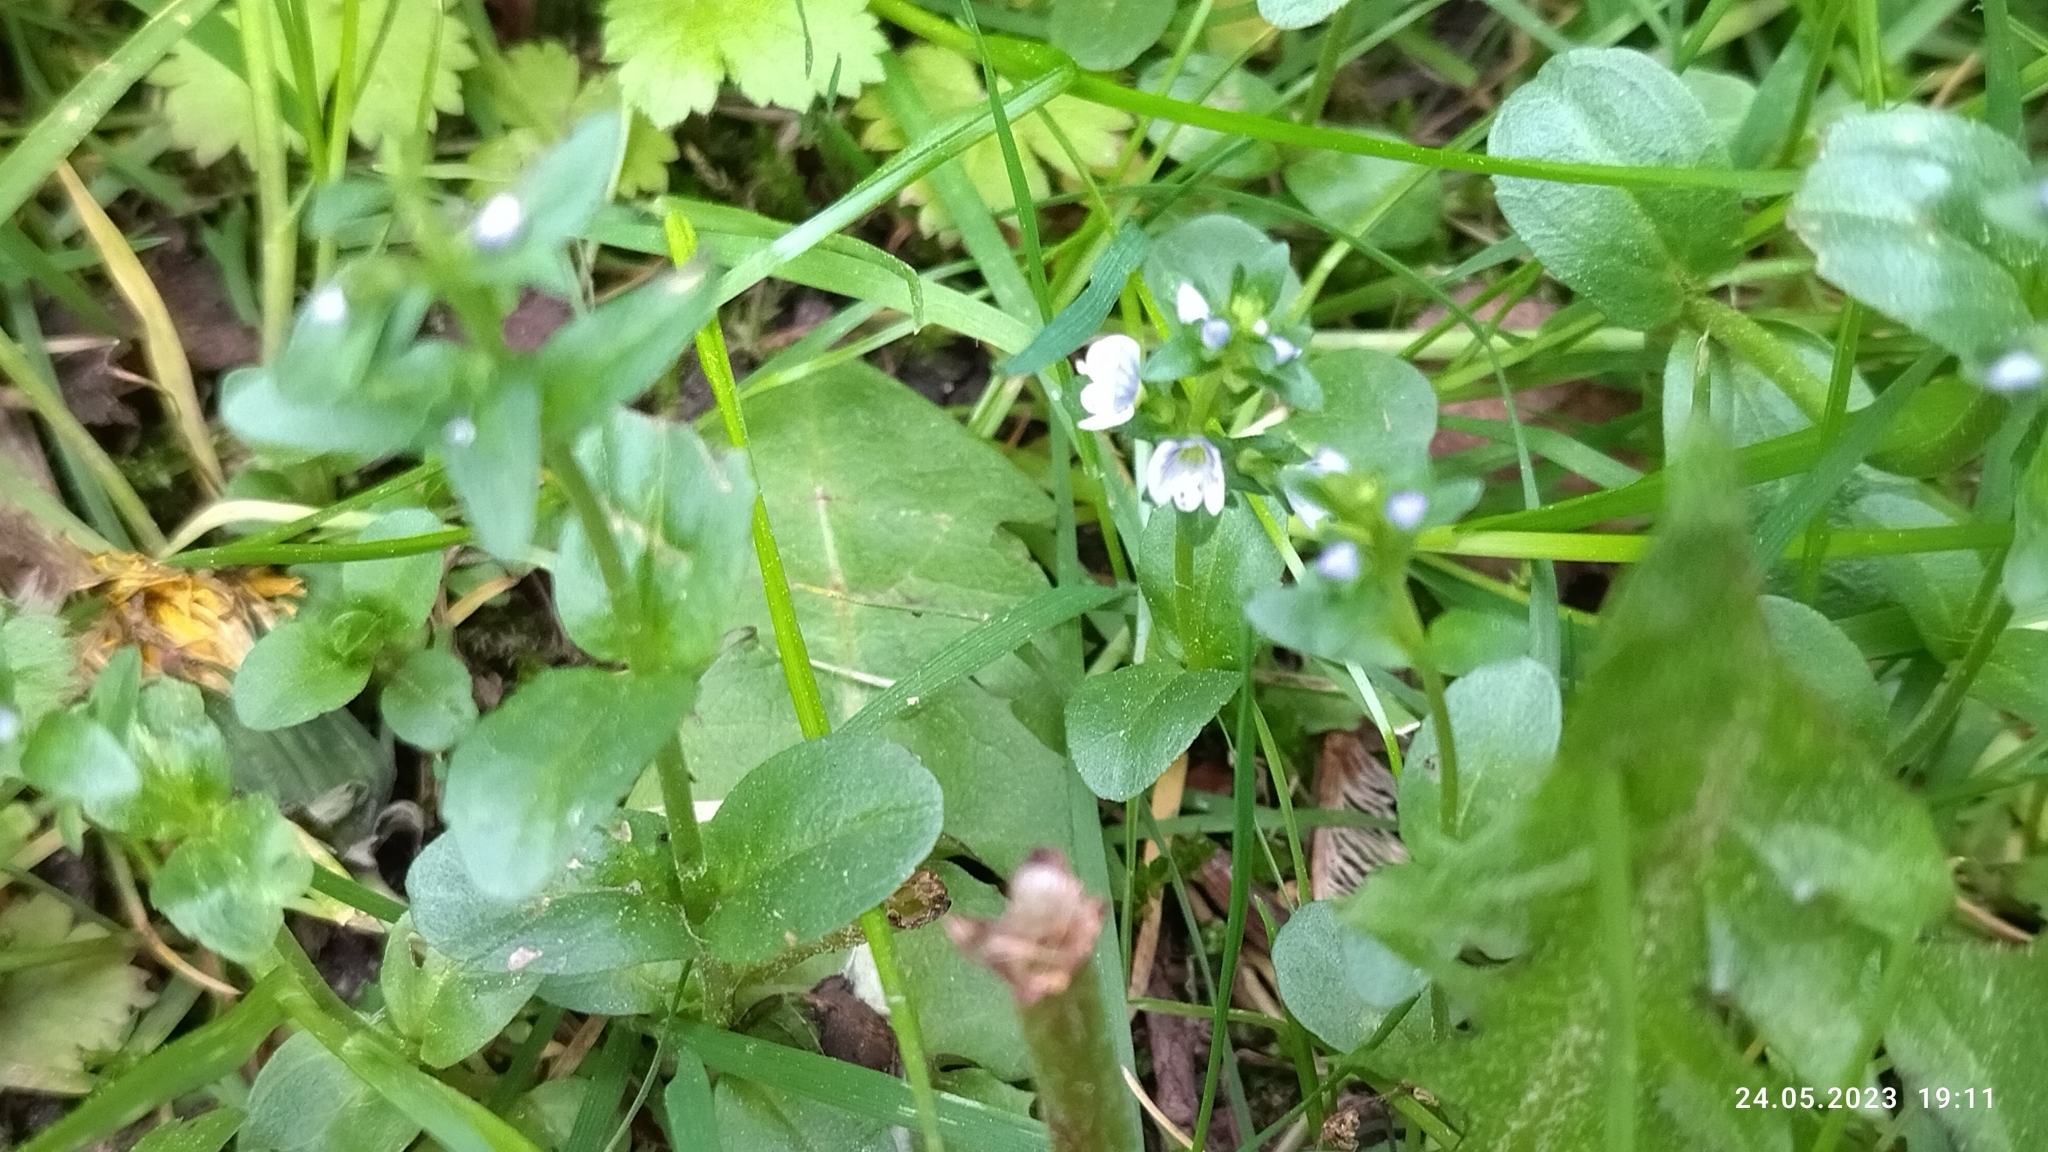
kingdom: Plantae
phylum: Tracheophyta
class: Magnoliopsida
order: Lamiales
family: Plantaginaceae
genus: Veronica
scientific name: Veronica serpyllifolia
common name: Thyme-leaved speedwell
